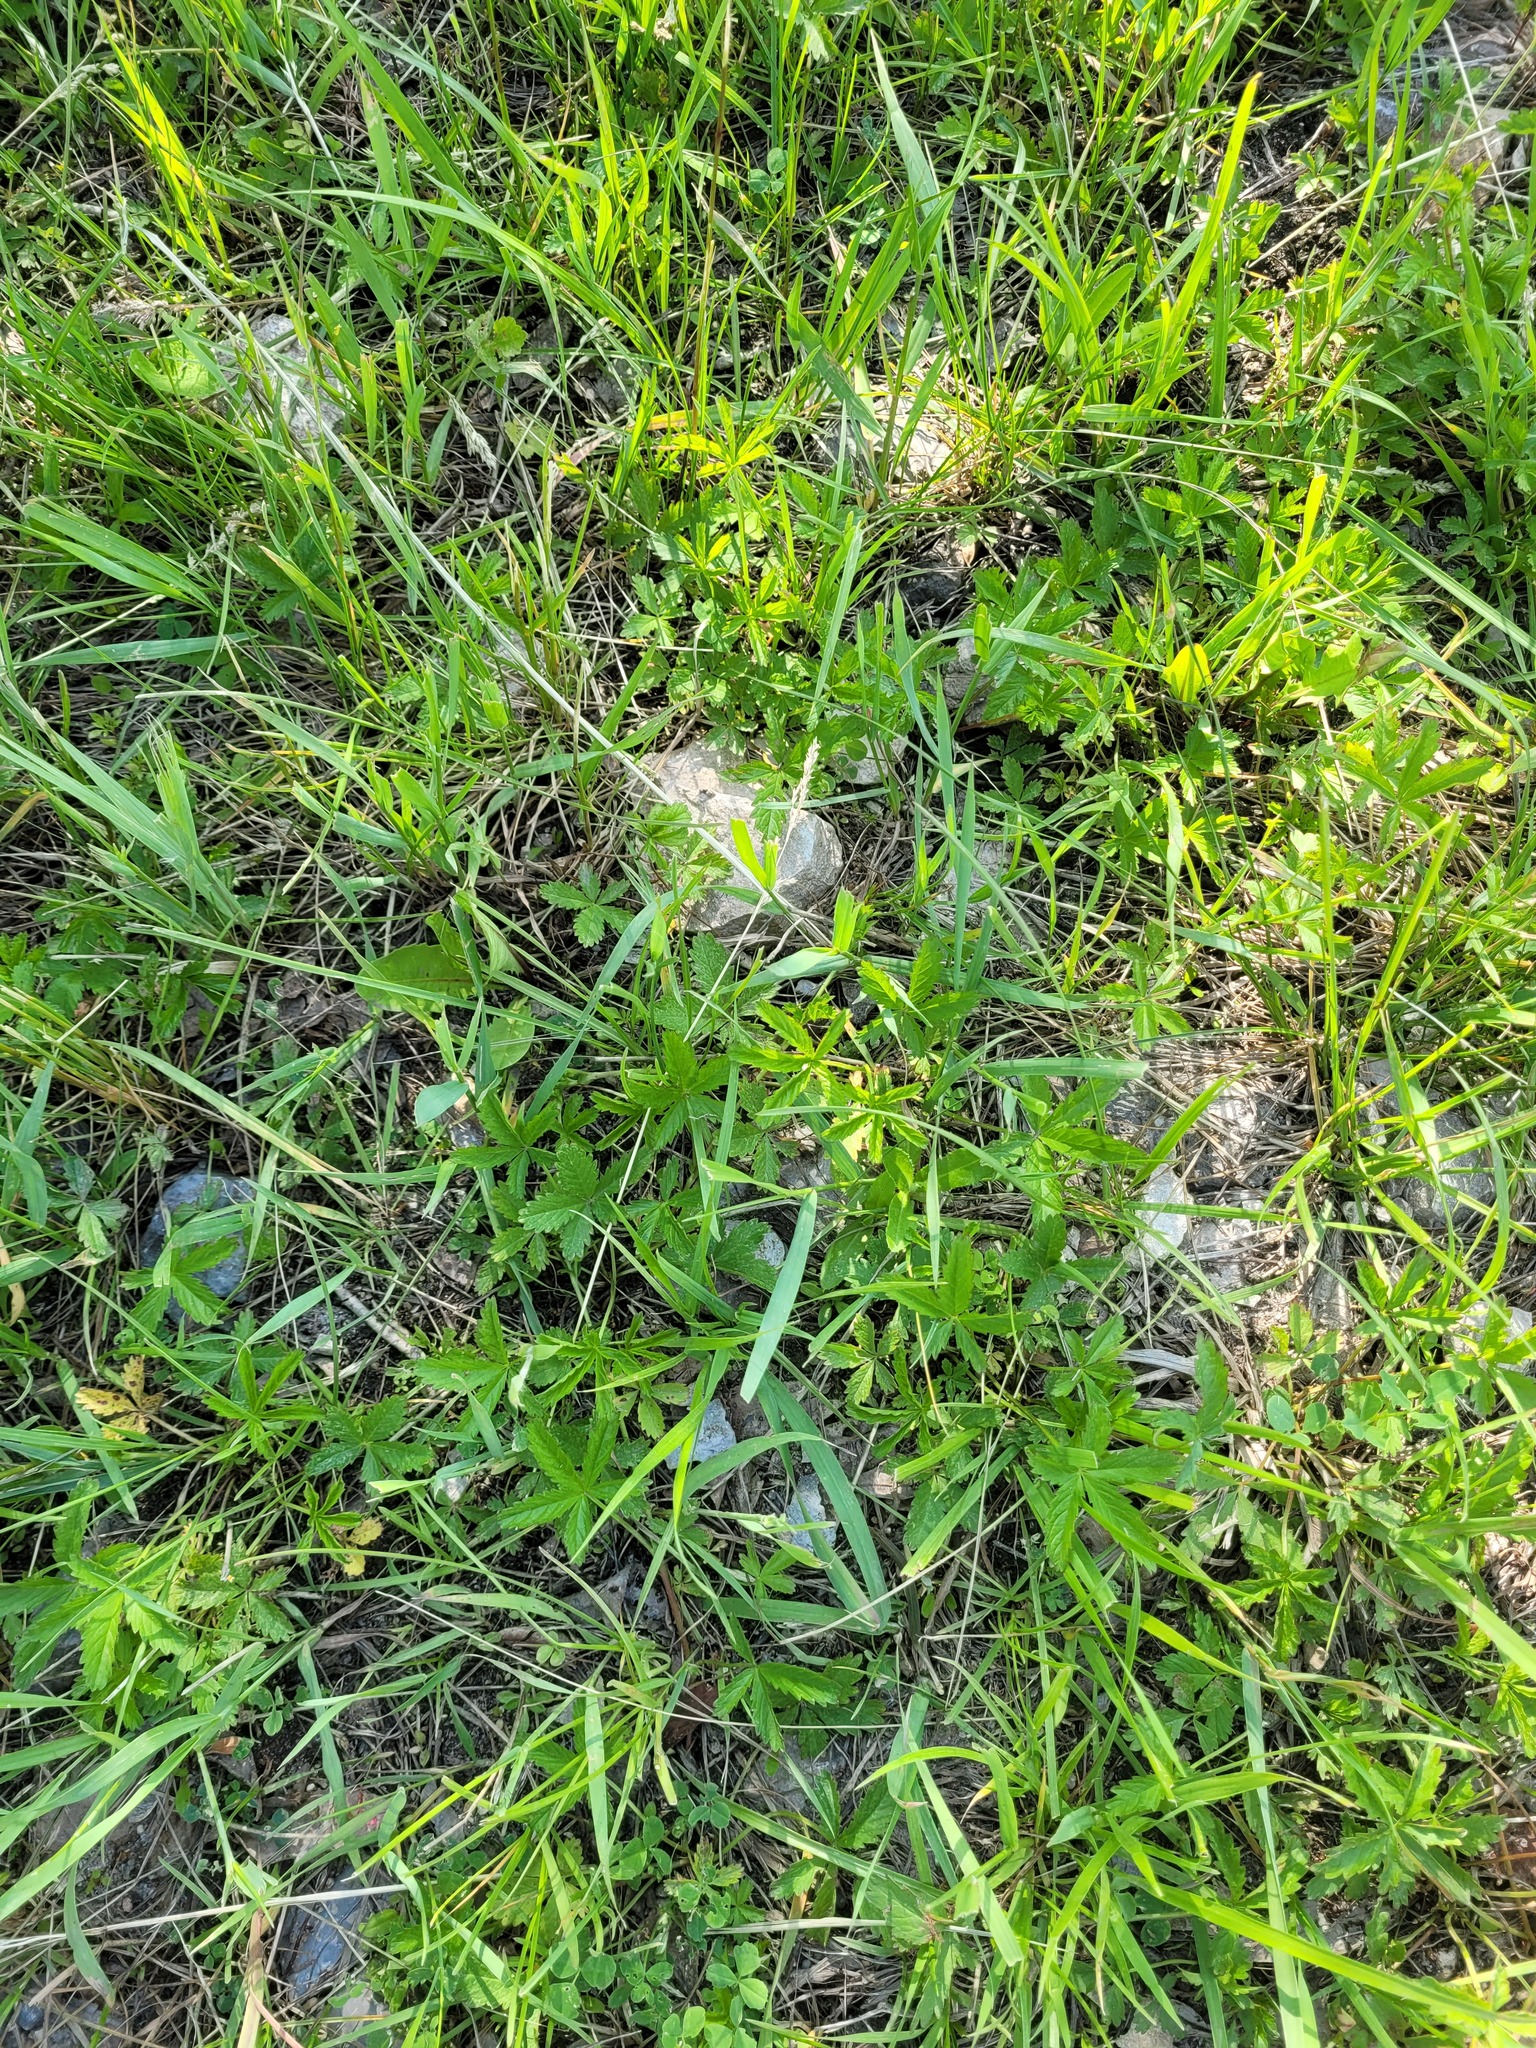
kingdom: Plantae
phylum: Tracheophyta
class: Magnoliopsida
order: Rosales
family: Rosaceae
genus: Potentilla
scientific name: Potentilla reptans
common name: Creeping cinquefoil
